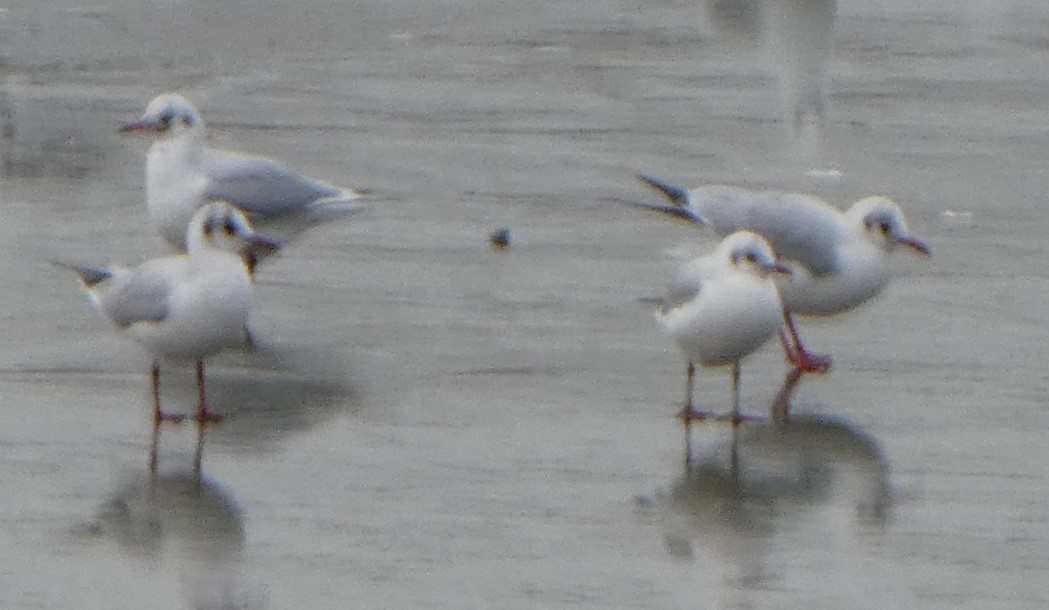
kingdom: Animalia
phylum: Chordata
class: Aves
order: Charadriiformes
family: Laridae
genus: Chroicocephalus
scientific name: Chroicocephalus ridibundus
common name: Black-headed gull
